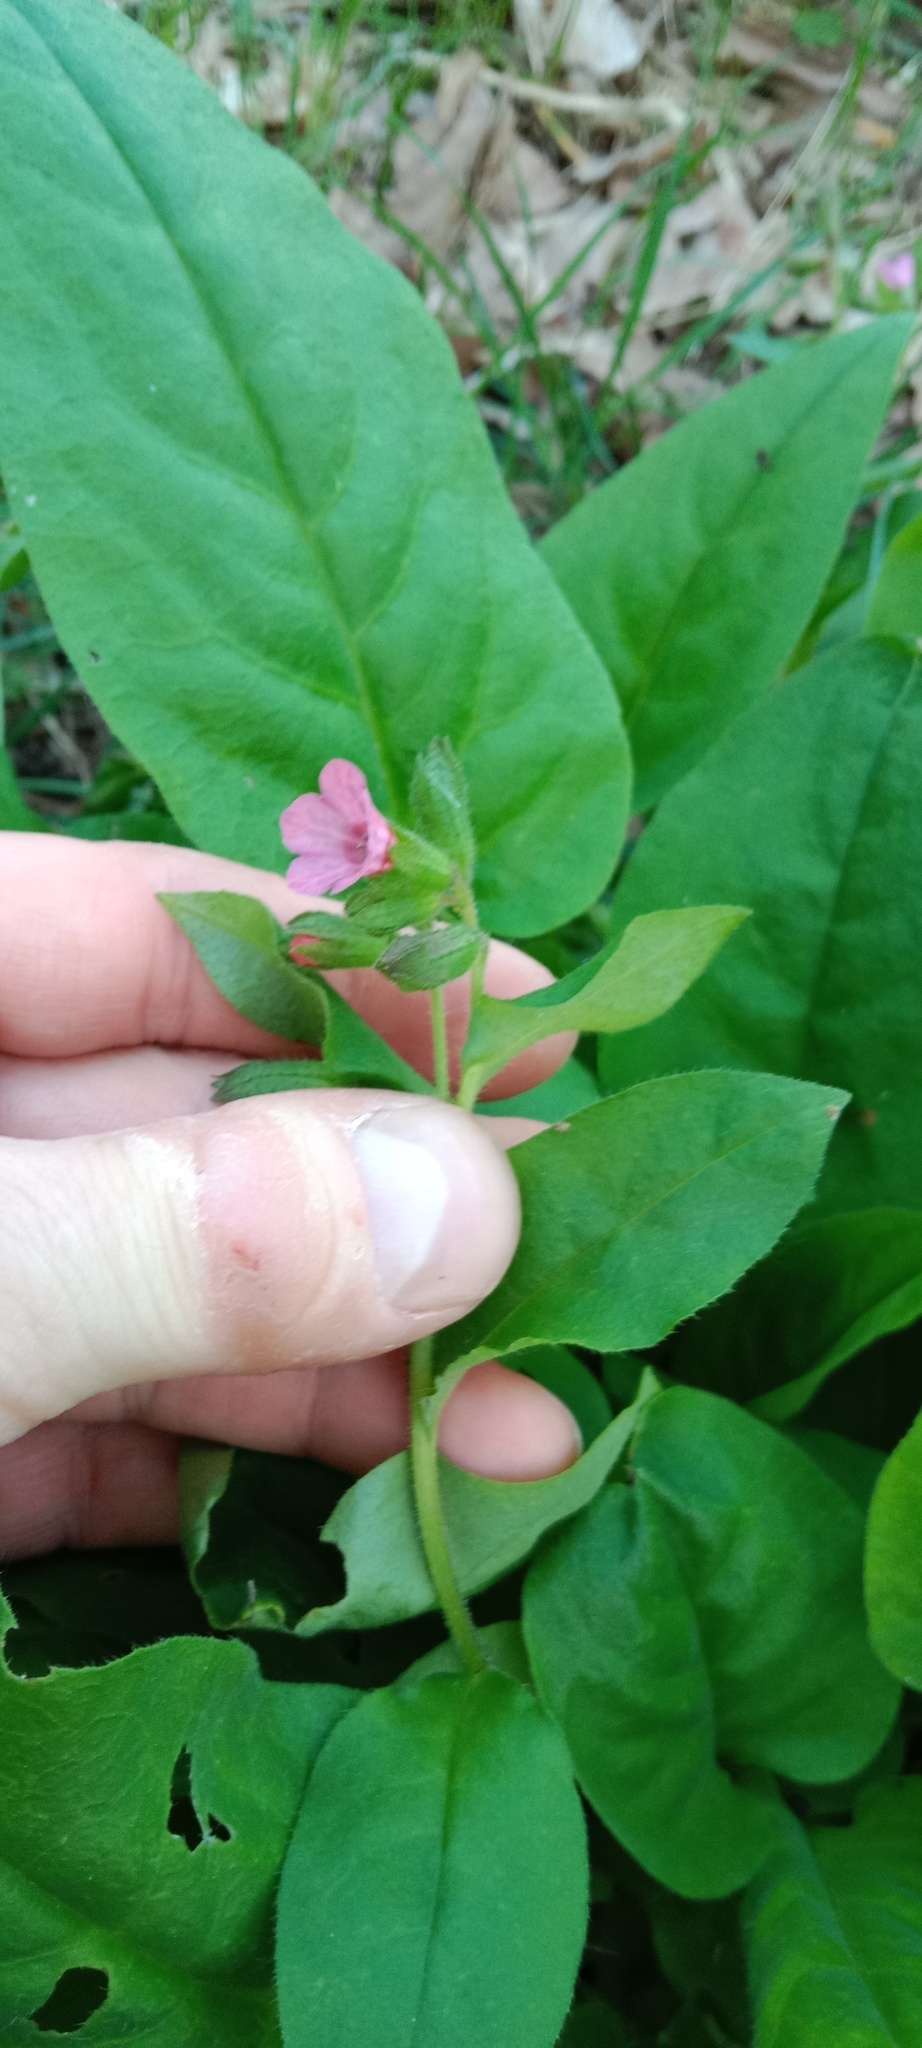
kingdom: Plantae
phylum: Tracheophyta
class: Magnoliopsida
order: Boraginales
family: Boraginaceae
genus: Pulmonaria
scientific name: Pulmonaria obscura
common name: Suffolk lungwort
